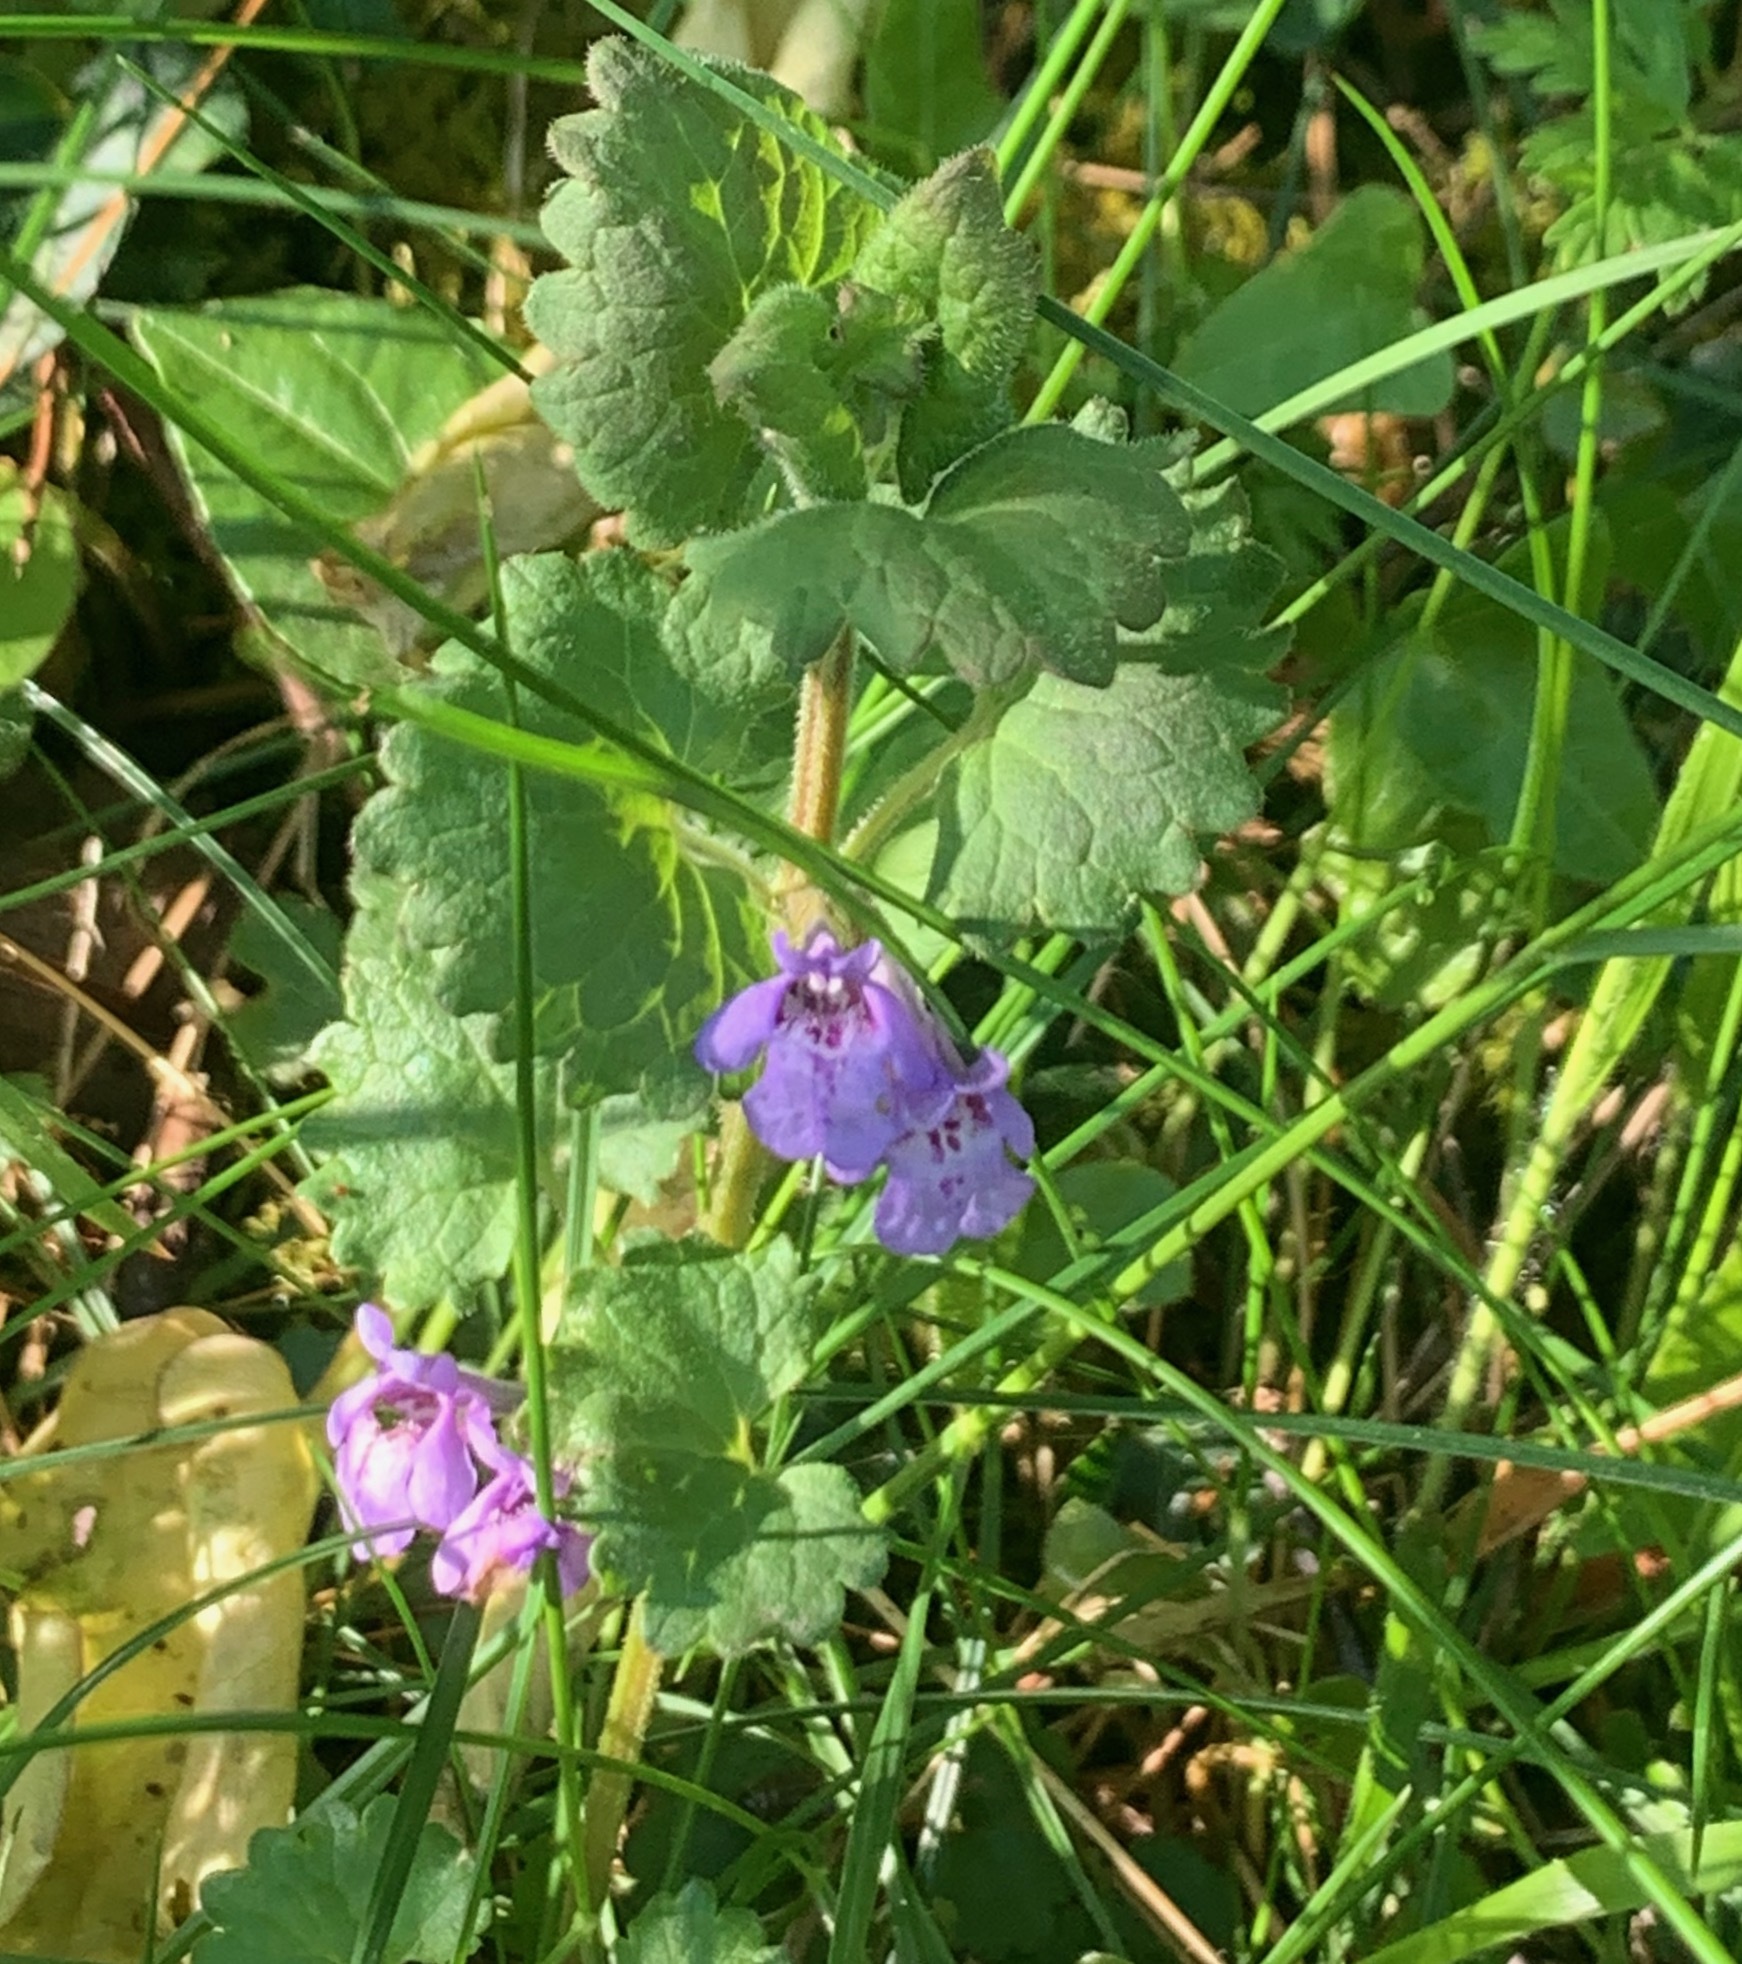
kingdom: Plantae
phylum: Tracheophyta
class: Magnoliopsida
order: Lamiales
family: Lamiaceae
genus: Glechoma
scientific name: Glechoma hederacea
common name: Ground ivy
